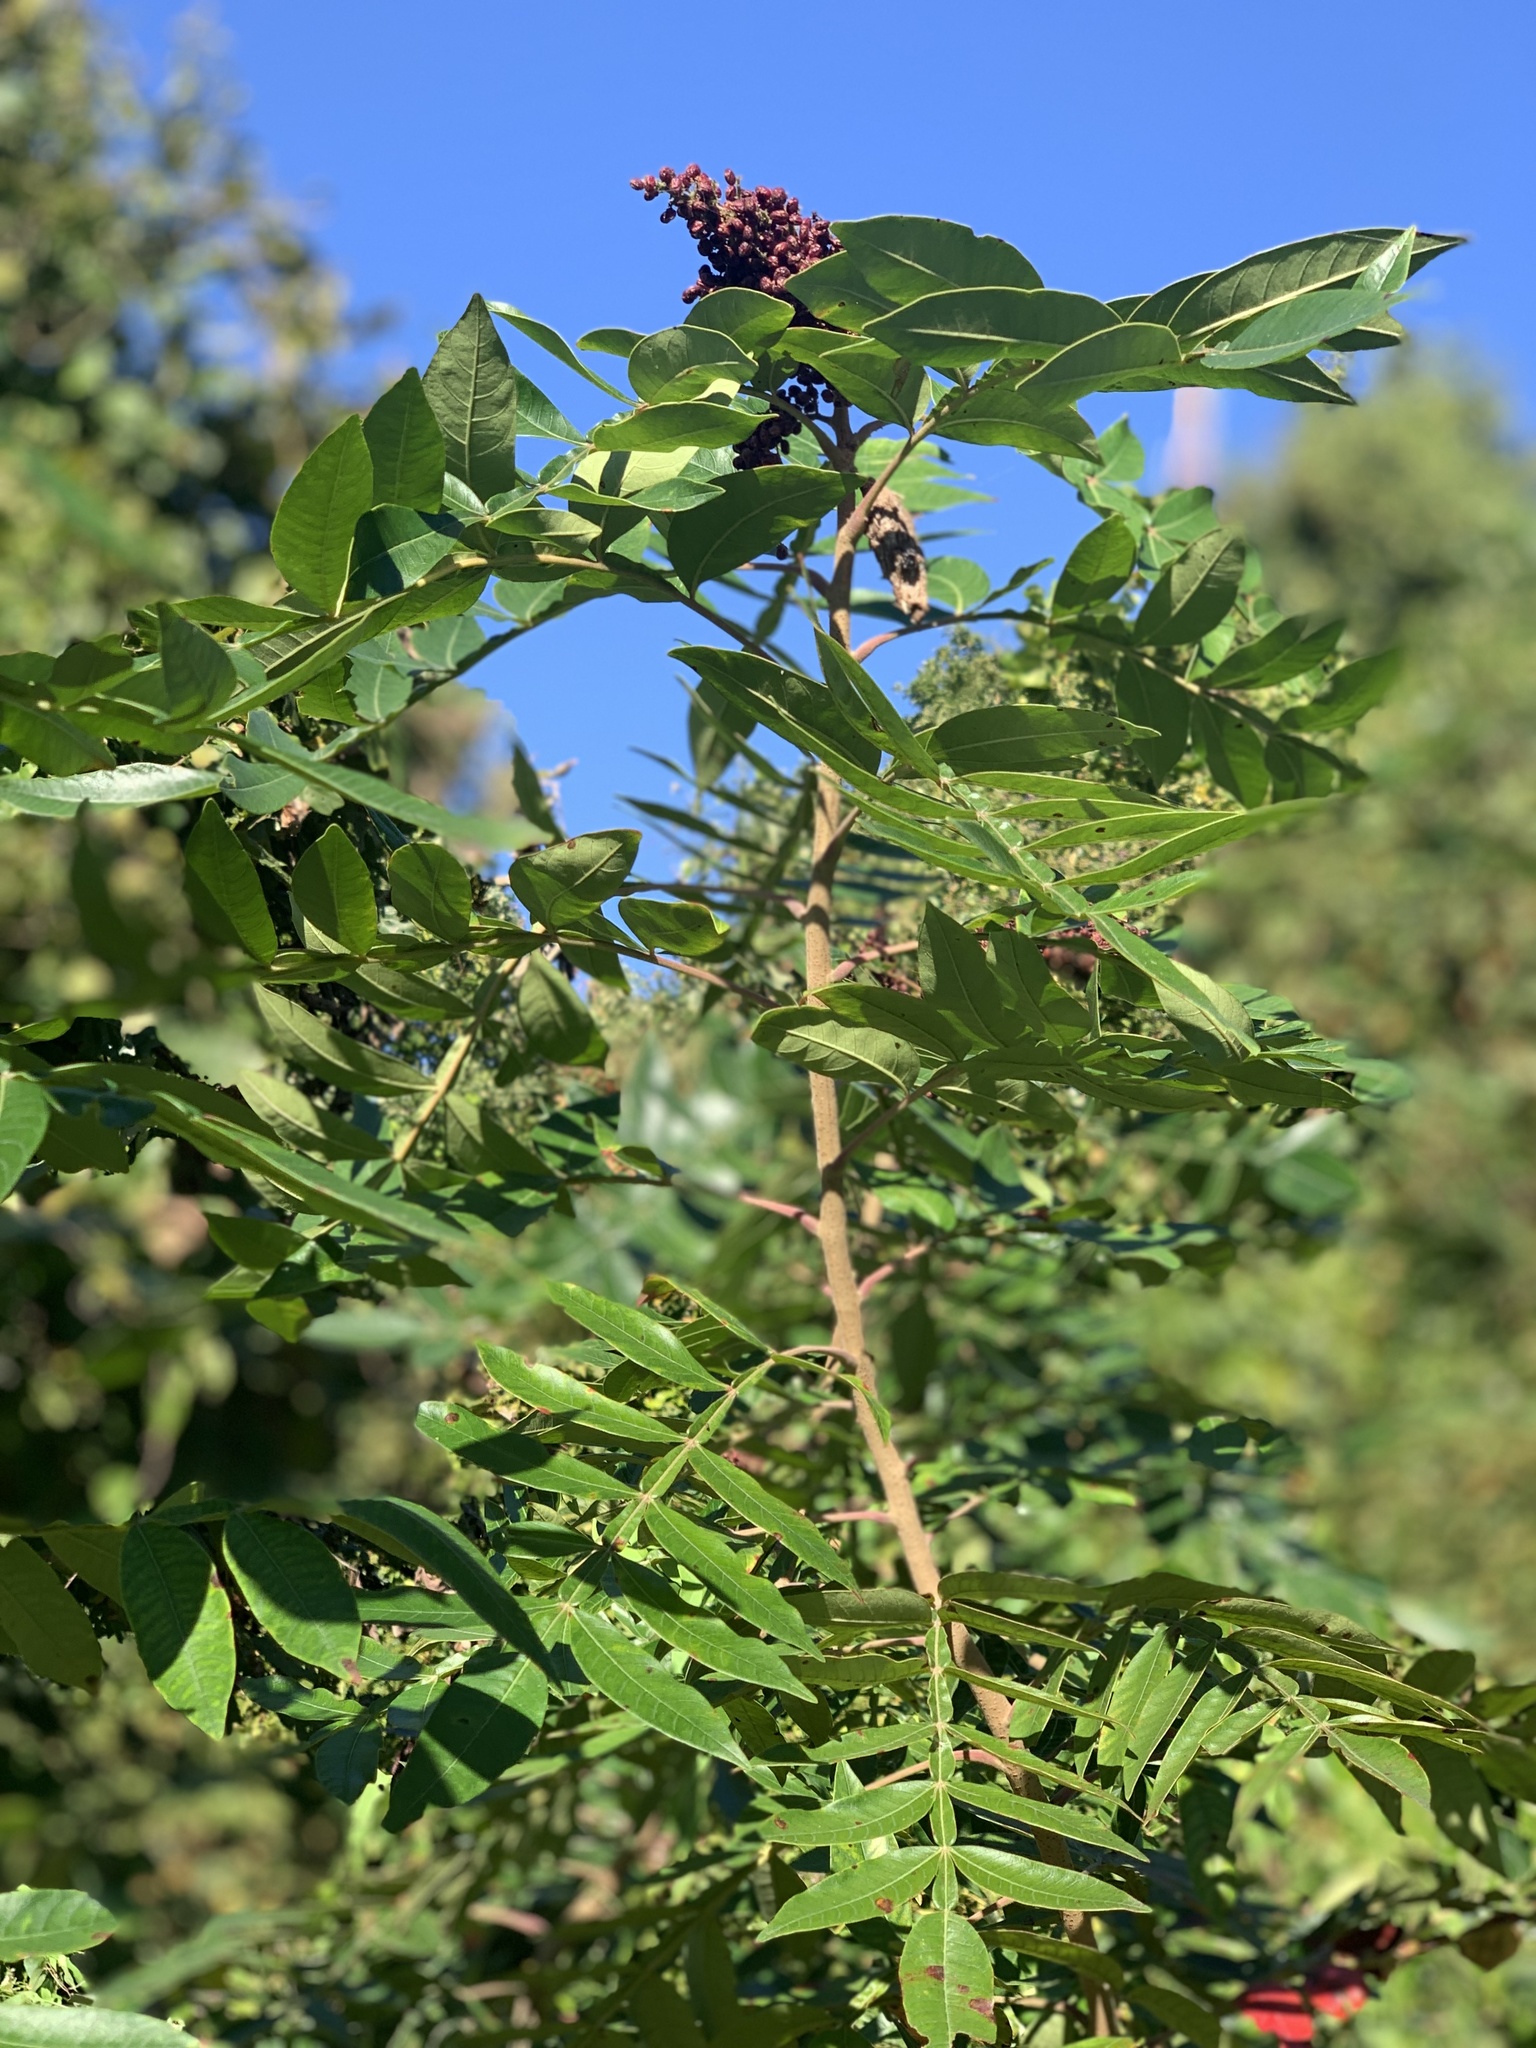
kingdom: Plantae
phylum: Tracheophyta
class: Magnoliopsida
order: Sapindales
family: Anacardiaceae
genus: Rhus
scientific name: Rhus copallina
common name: Shining sumac
